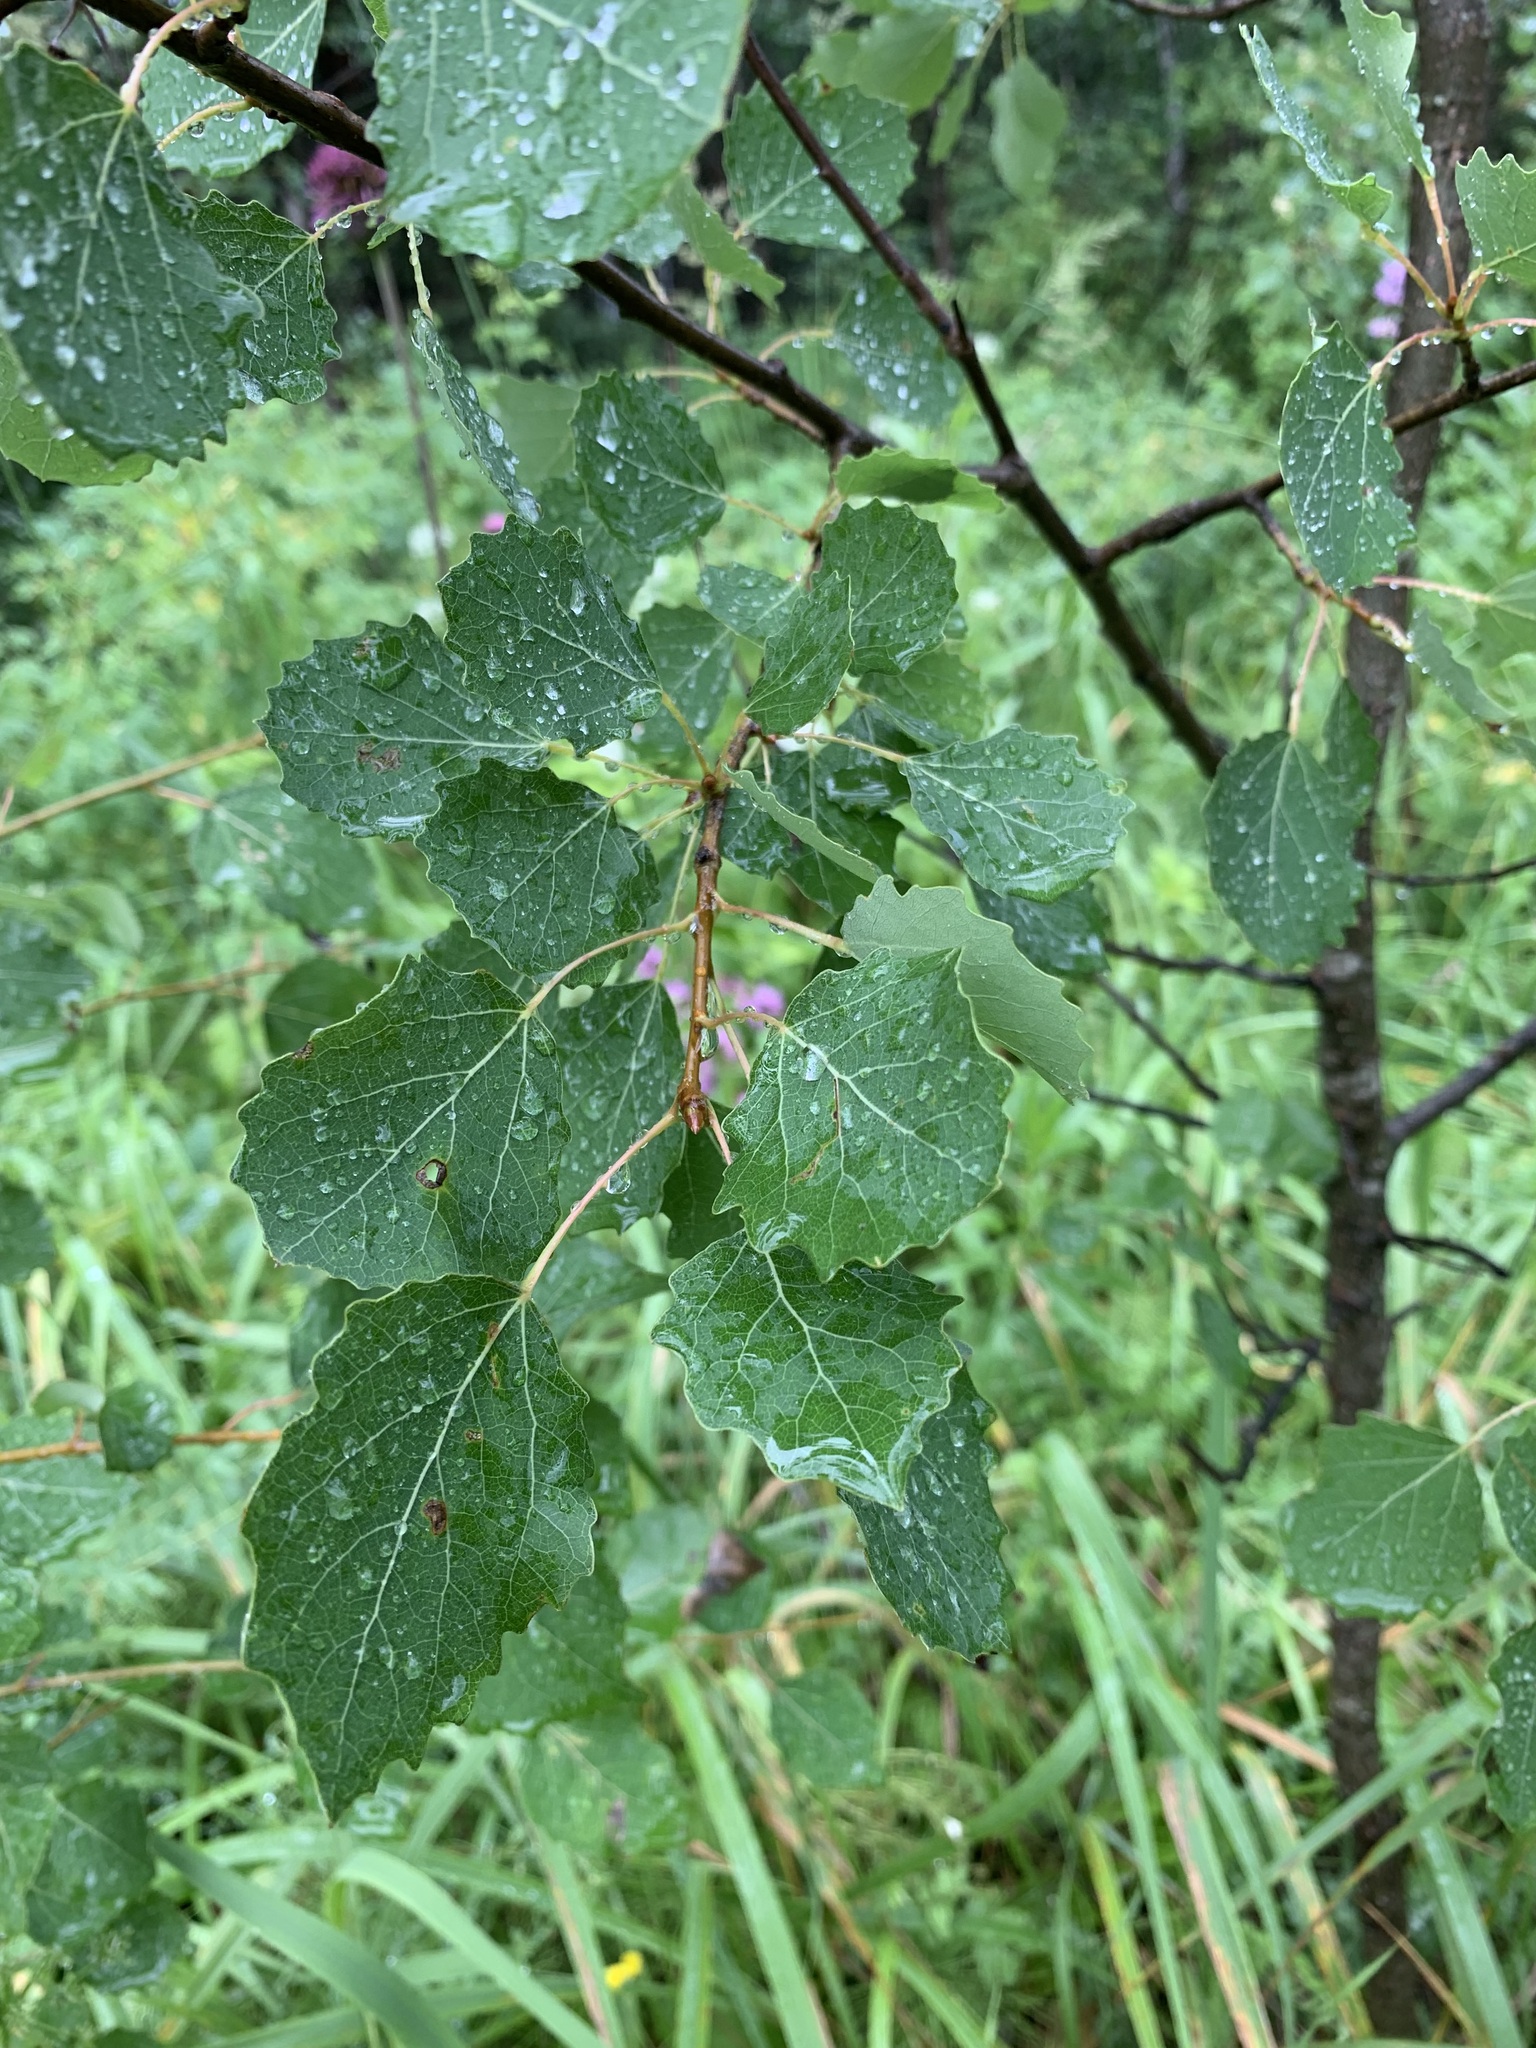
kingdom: Plantae
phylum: Tracheophyta
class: Magnoliopsida
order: Malpighiales
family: Salicaceae
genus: Populus
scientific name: Populus tremula
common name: European aspen
